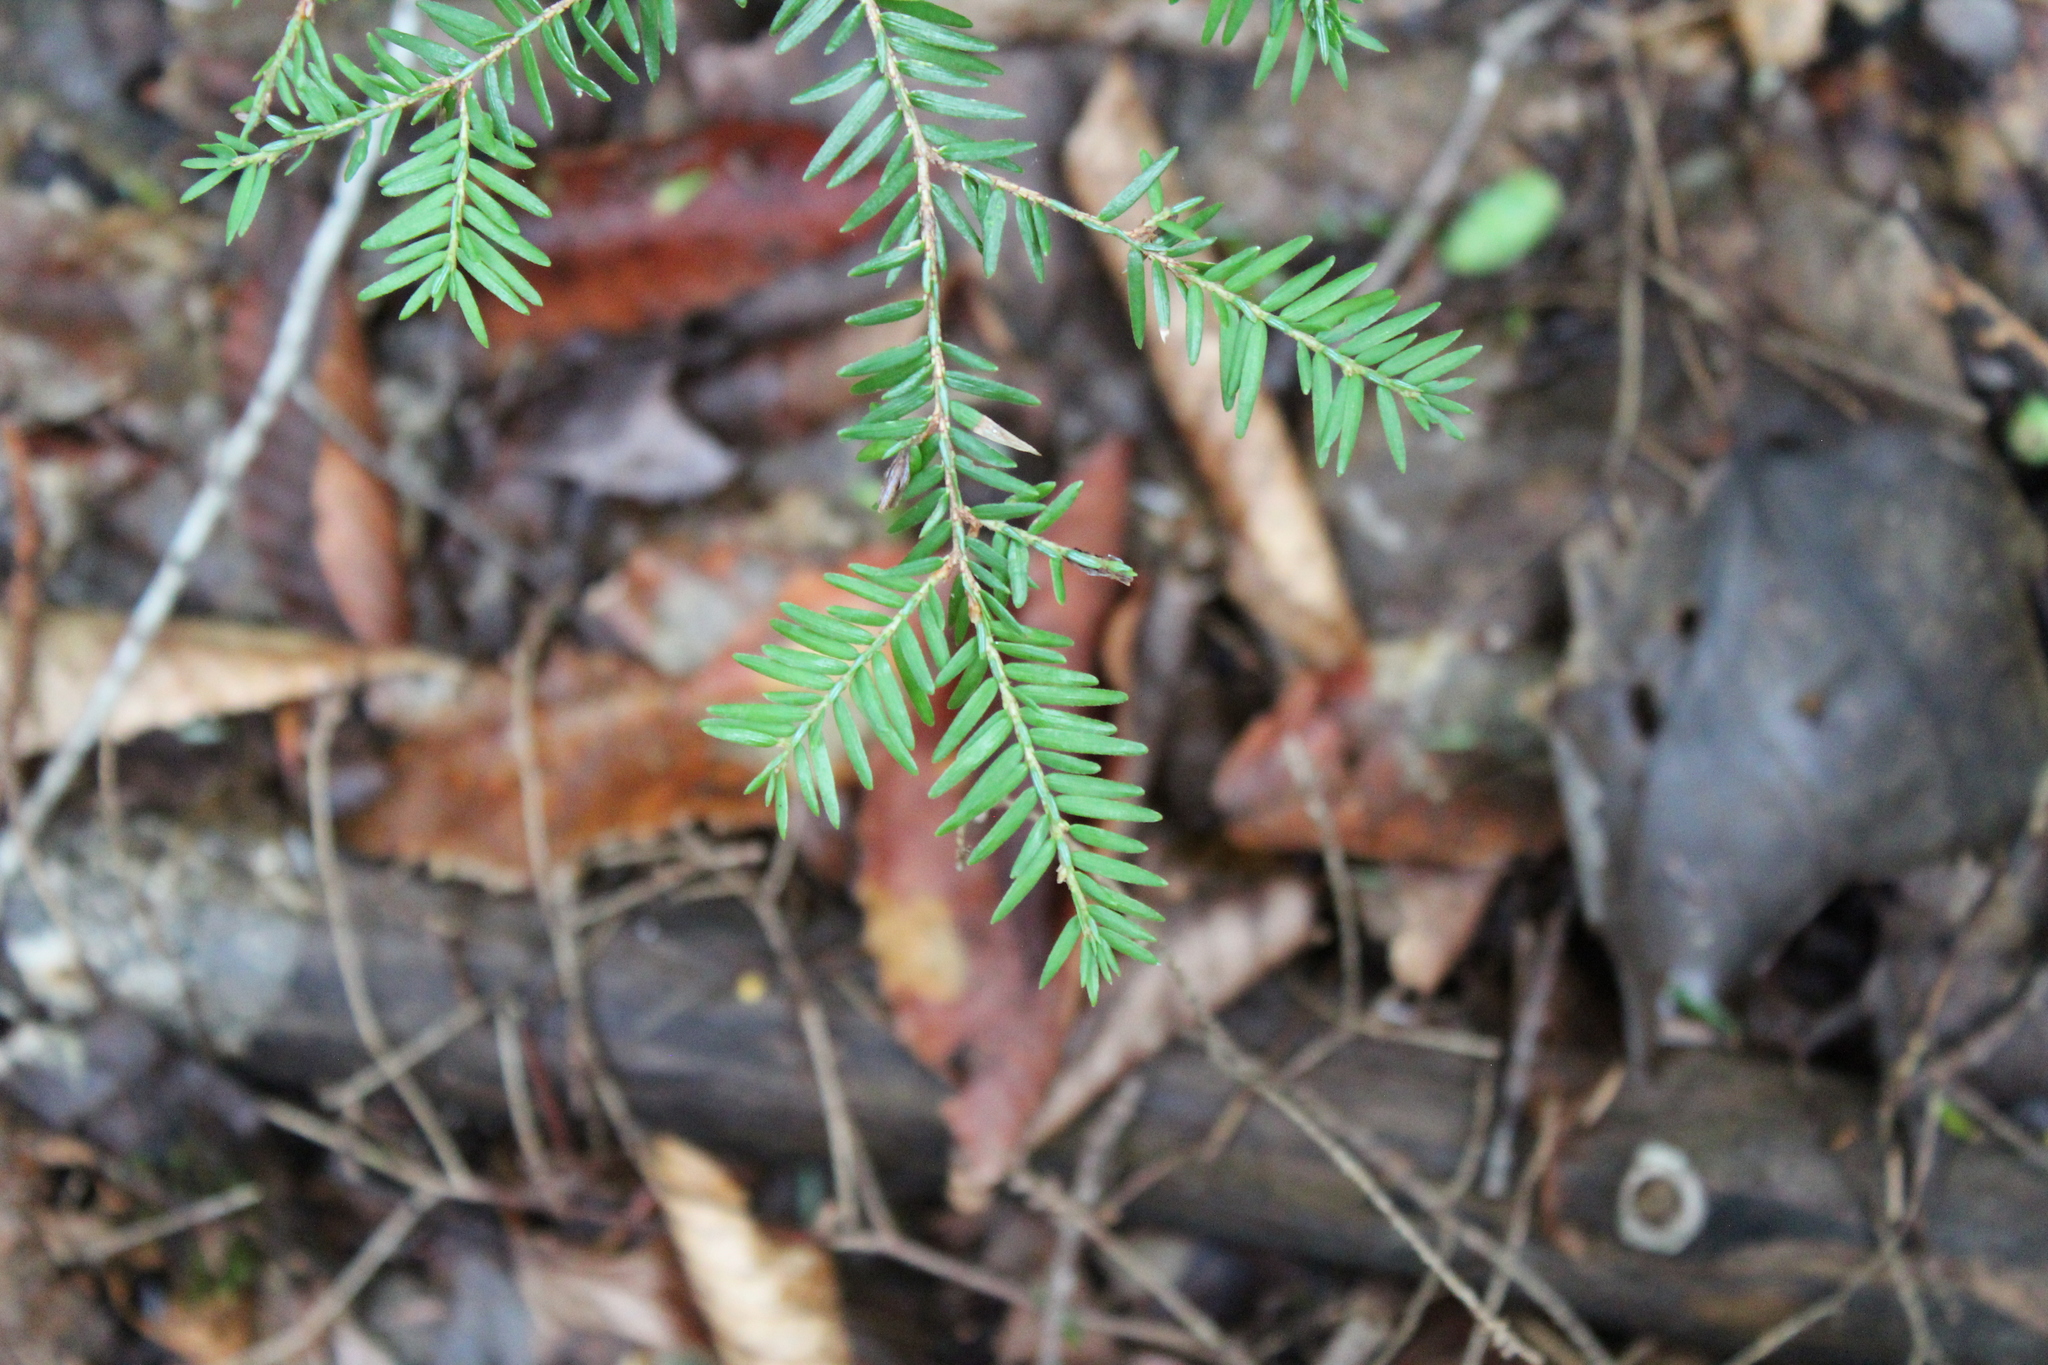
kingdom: Plantae
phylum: Tracheophyta
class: Pinopsida
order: Pinales
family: Pinaceae
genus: Tsuga
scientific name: Tsuga canadensis
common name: Eastern hemlock
